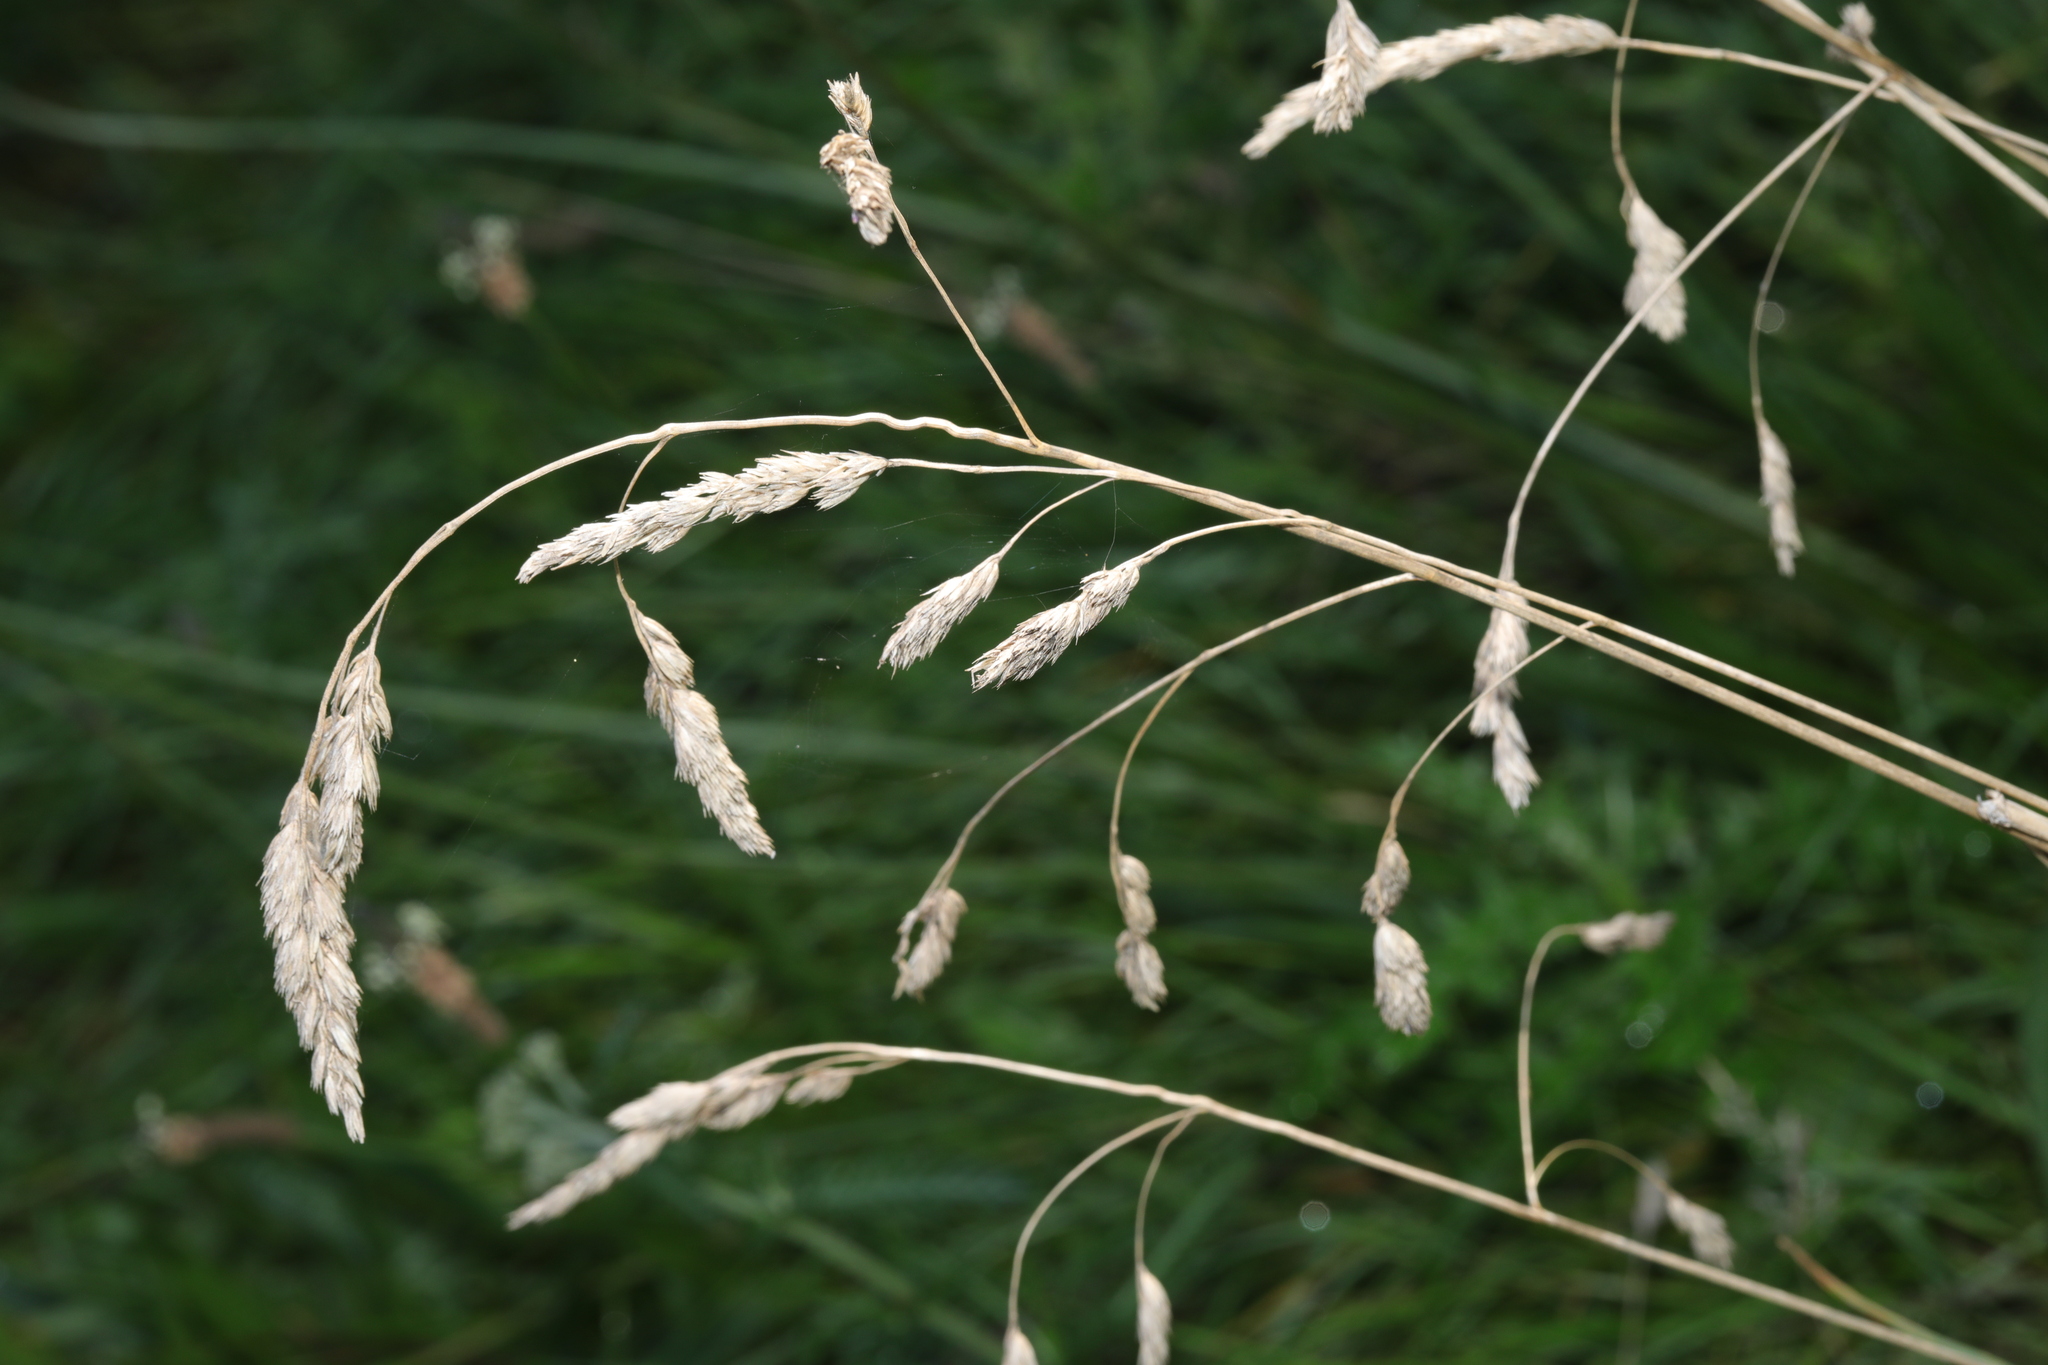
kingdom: Plantae
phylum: Tracheophyta
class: Liliopsida
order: Poales
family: Poaceae
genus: Dactylis
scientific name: Dactylis glomerata
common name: Orchardgrass
